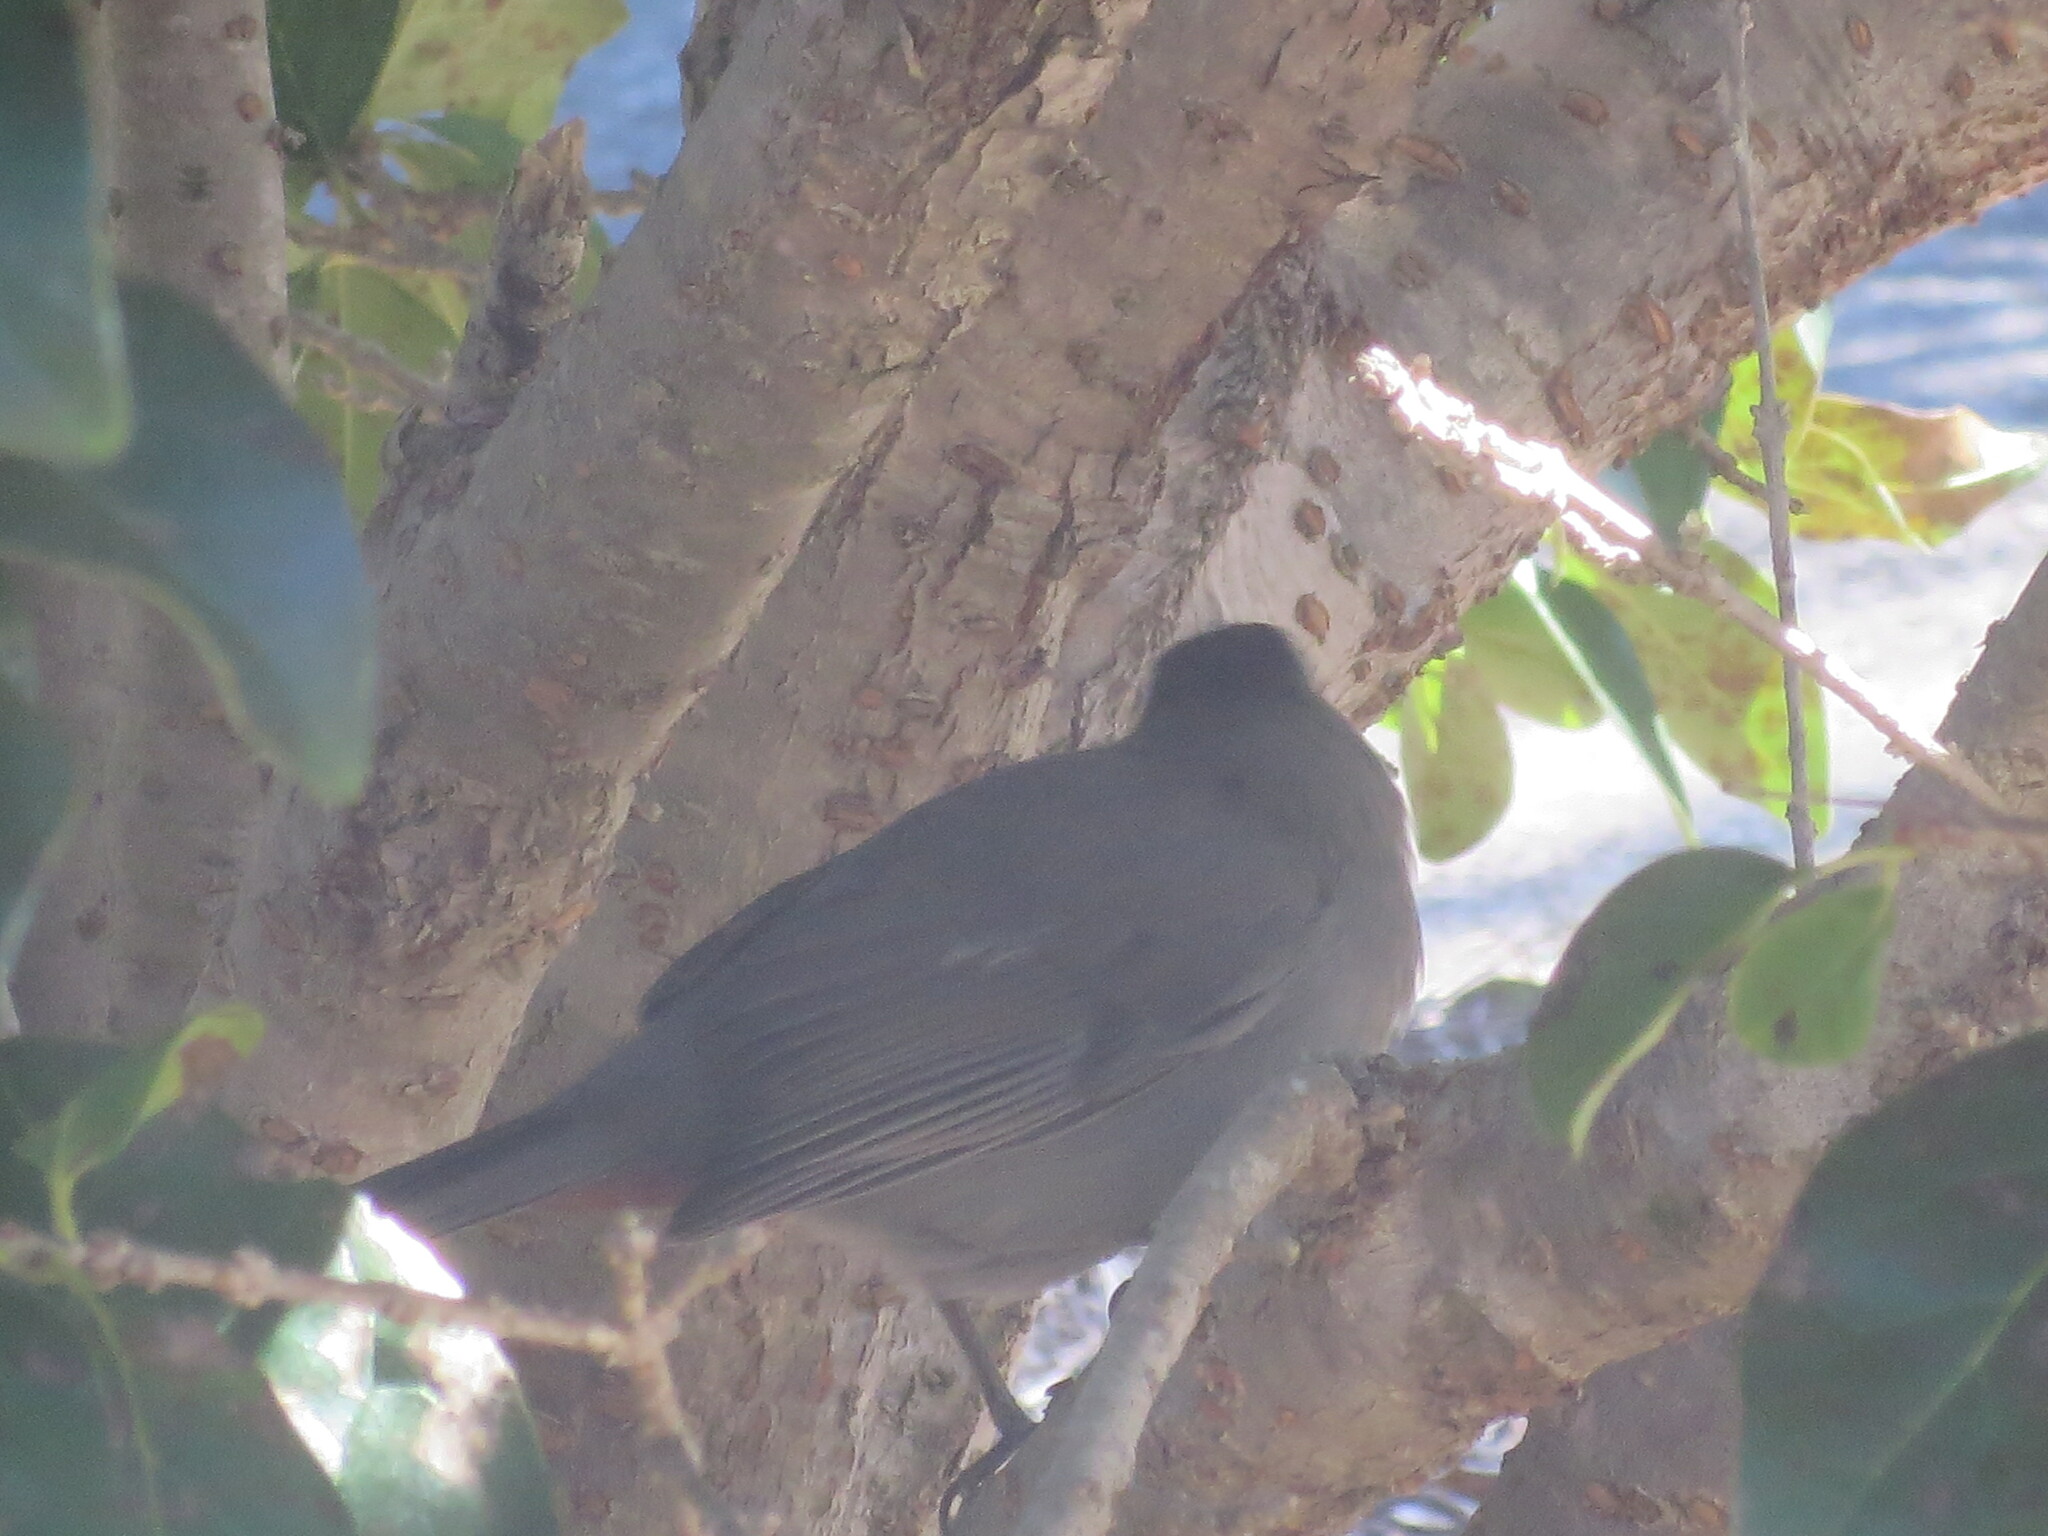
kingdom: Animalia
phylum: Chordata
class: Aves
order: Passeriformes
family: Mimidae
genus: Dumetella
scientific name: Dumetella carolinensis
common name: Gray catbird
